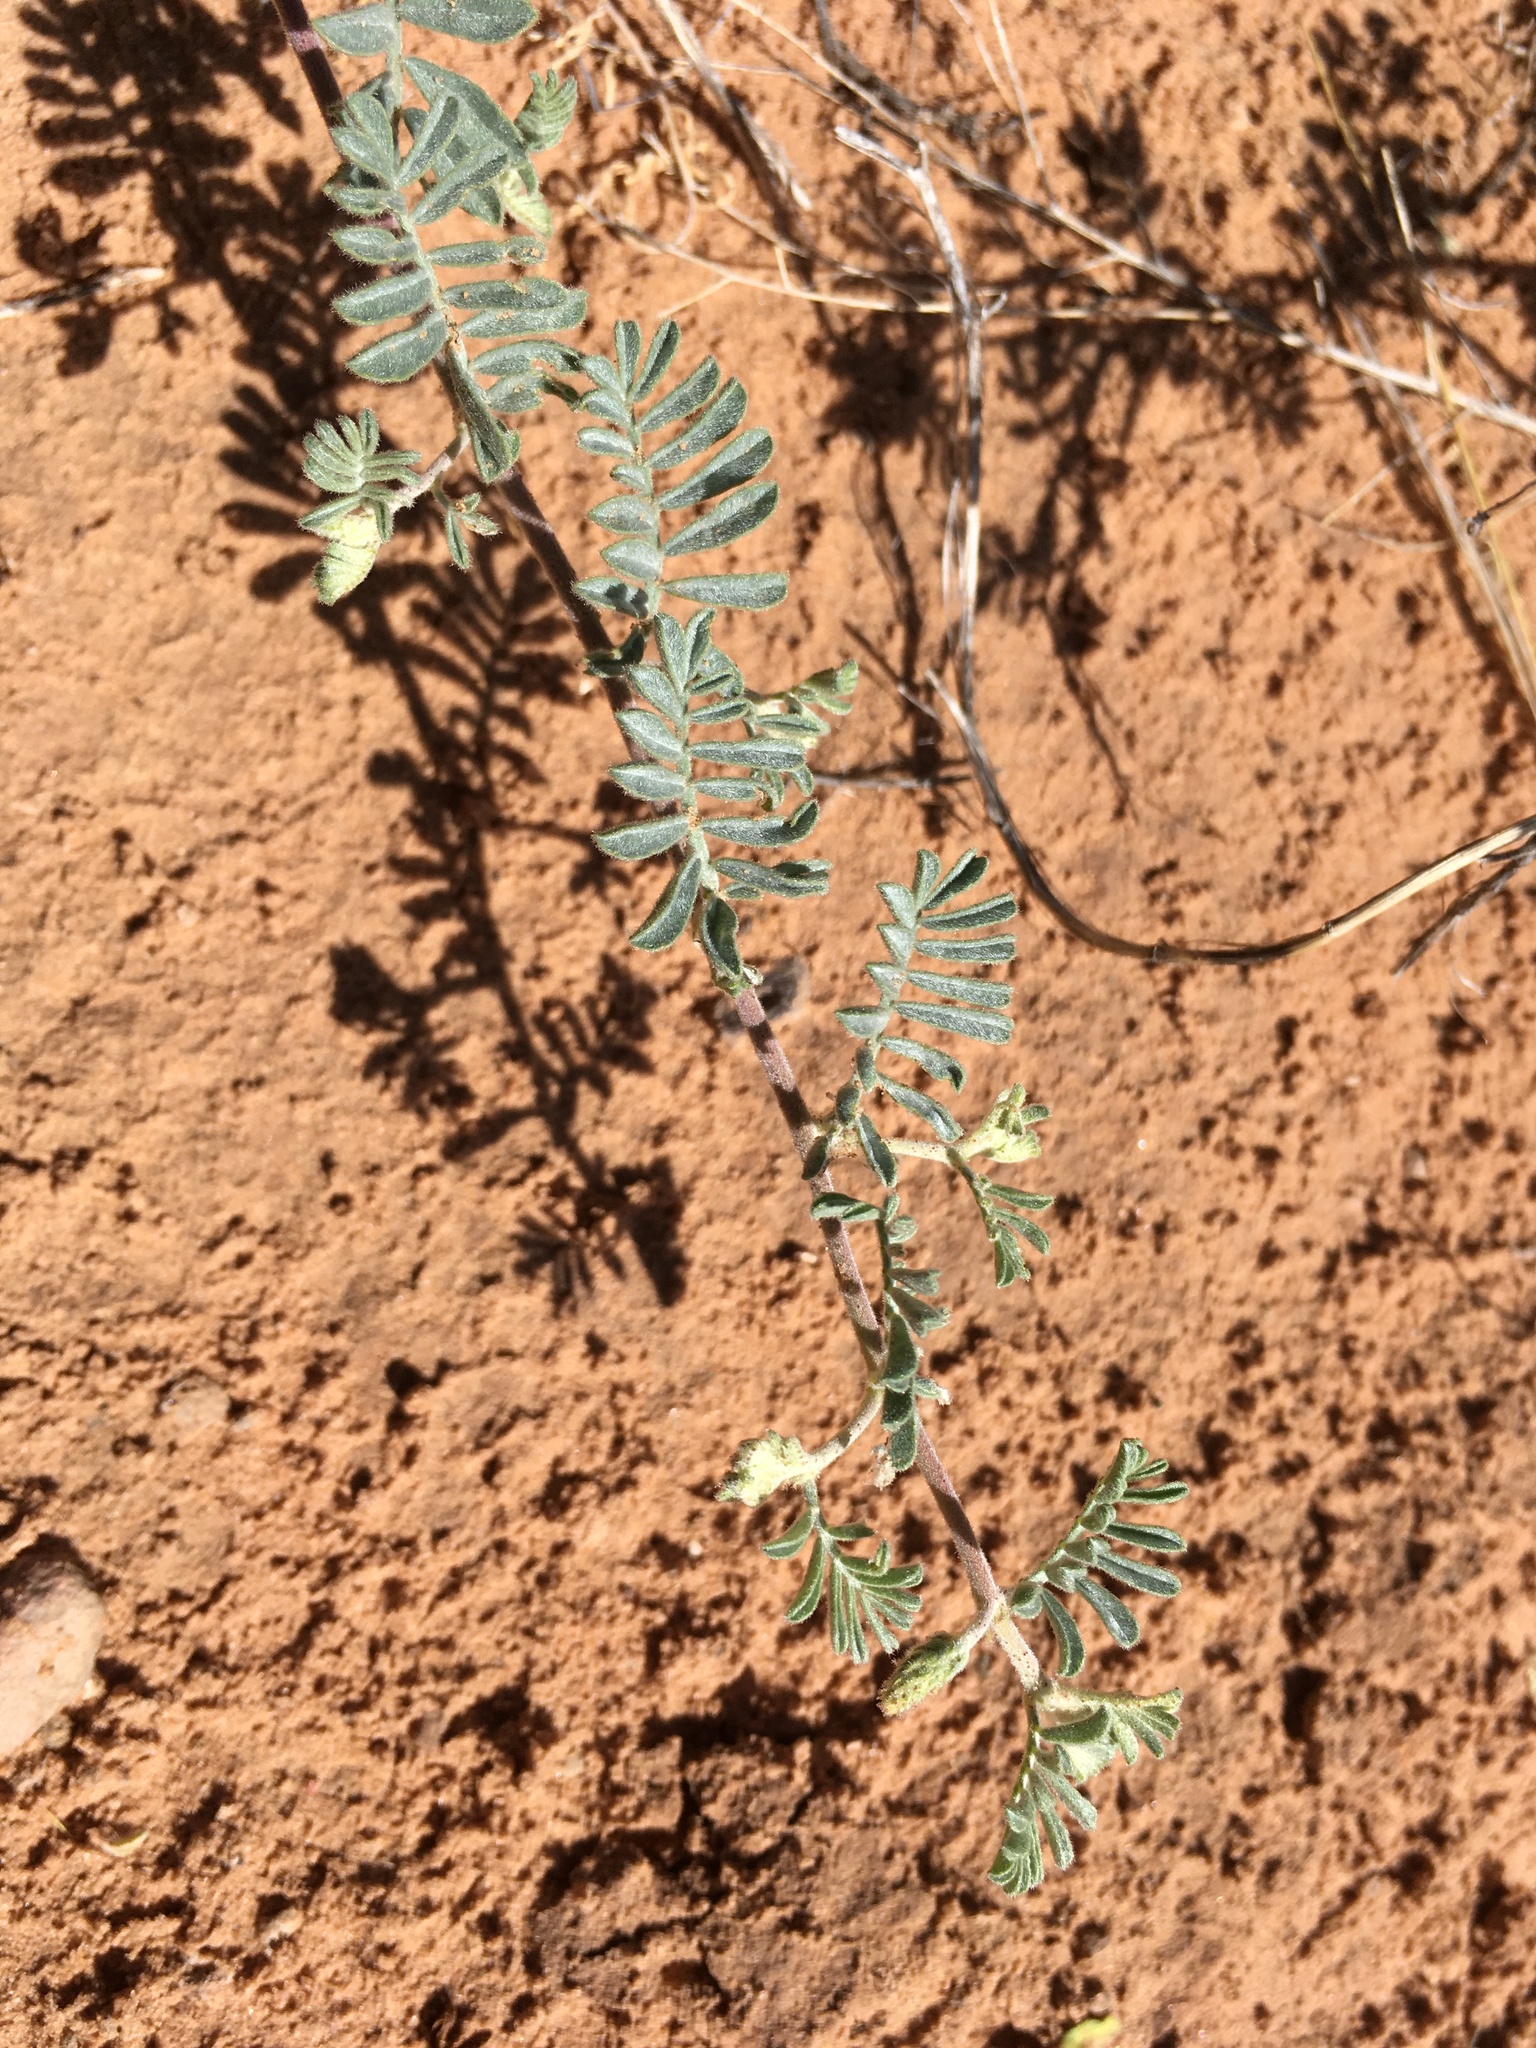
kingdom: Plantae
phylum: Tracheophyta
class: Magnoliopsida
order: Fabales
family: Fabaceae
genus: Dalea
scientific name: Dalea lanata
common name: Woolly dalea
